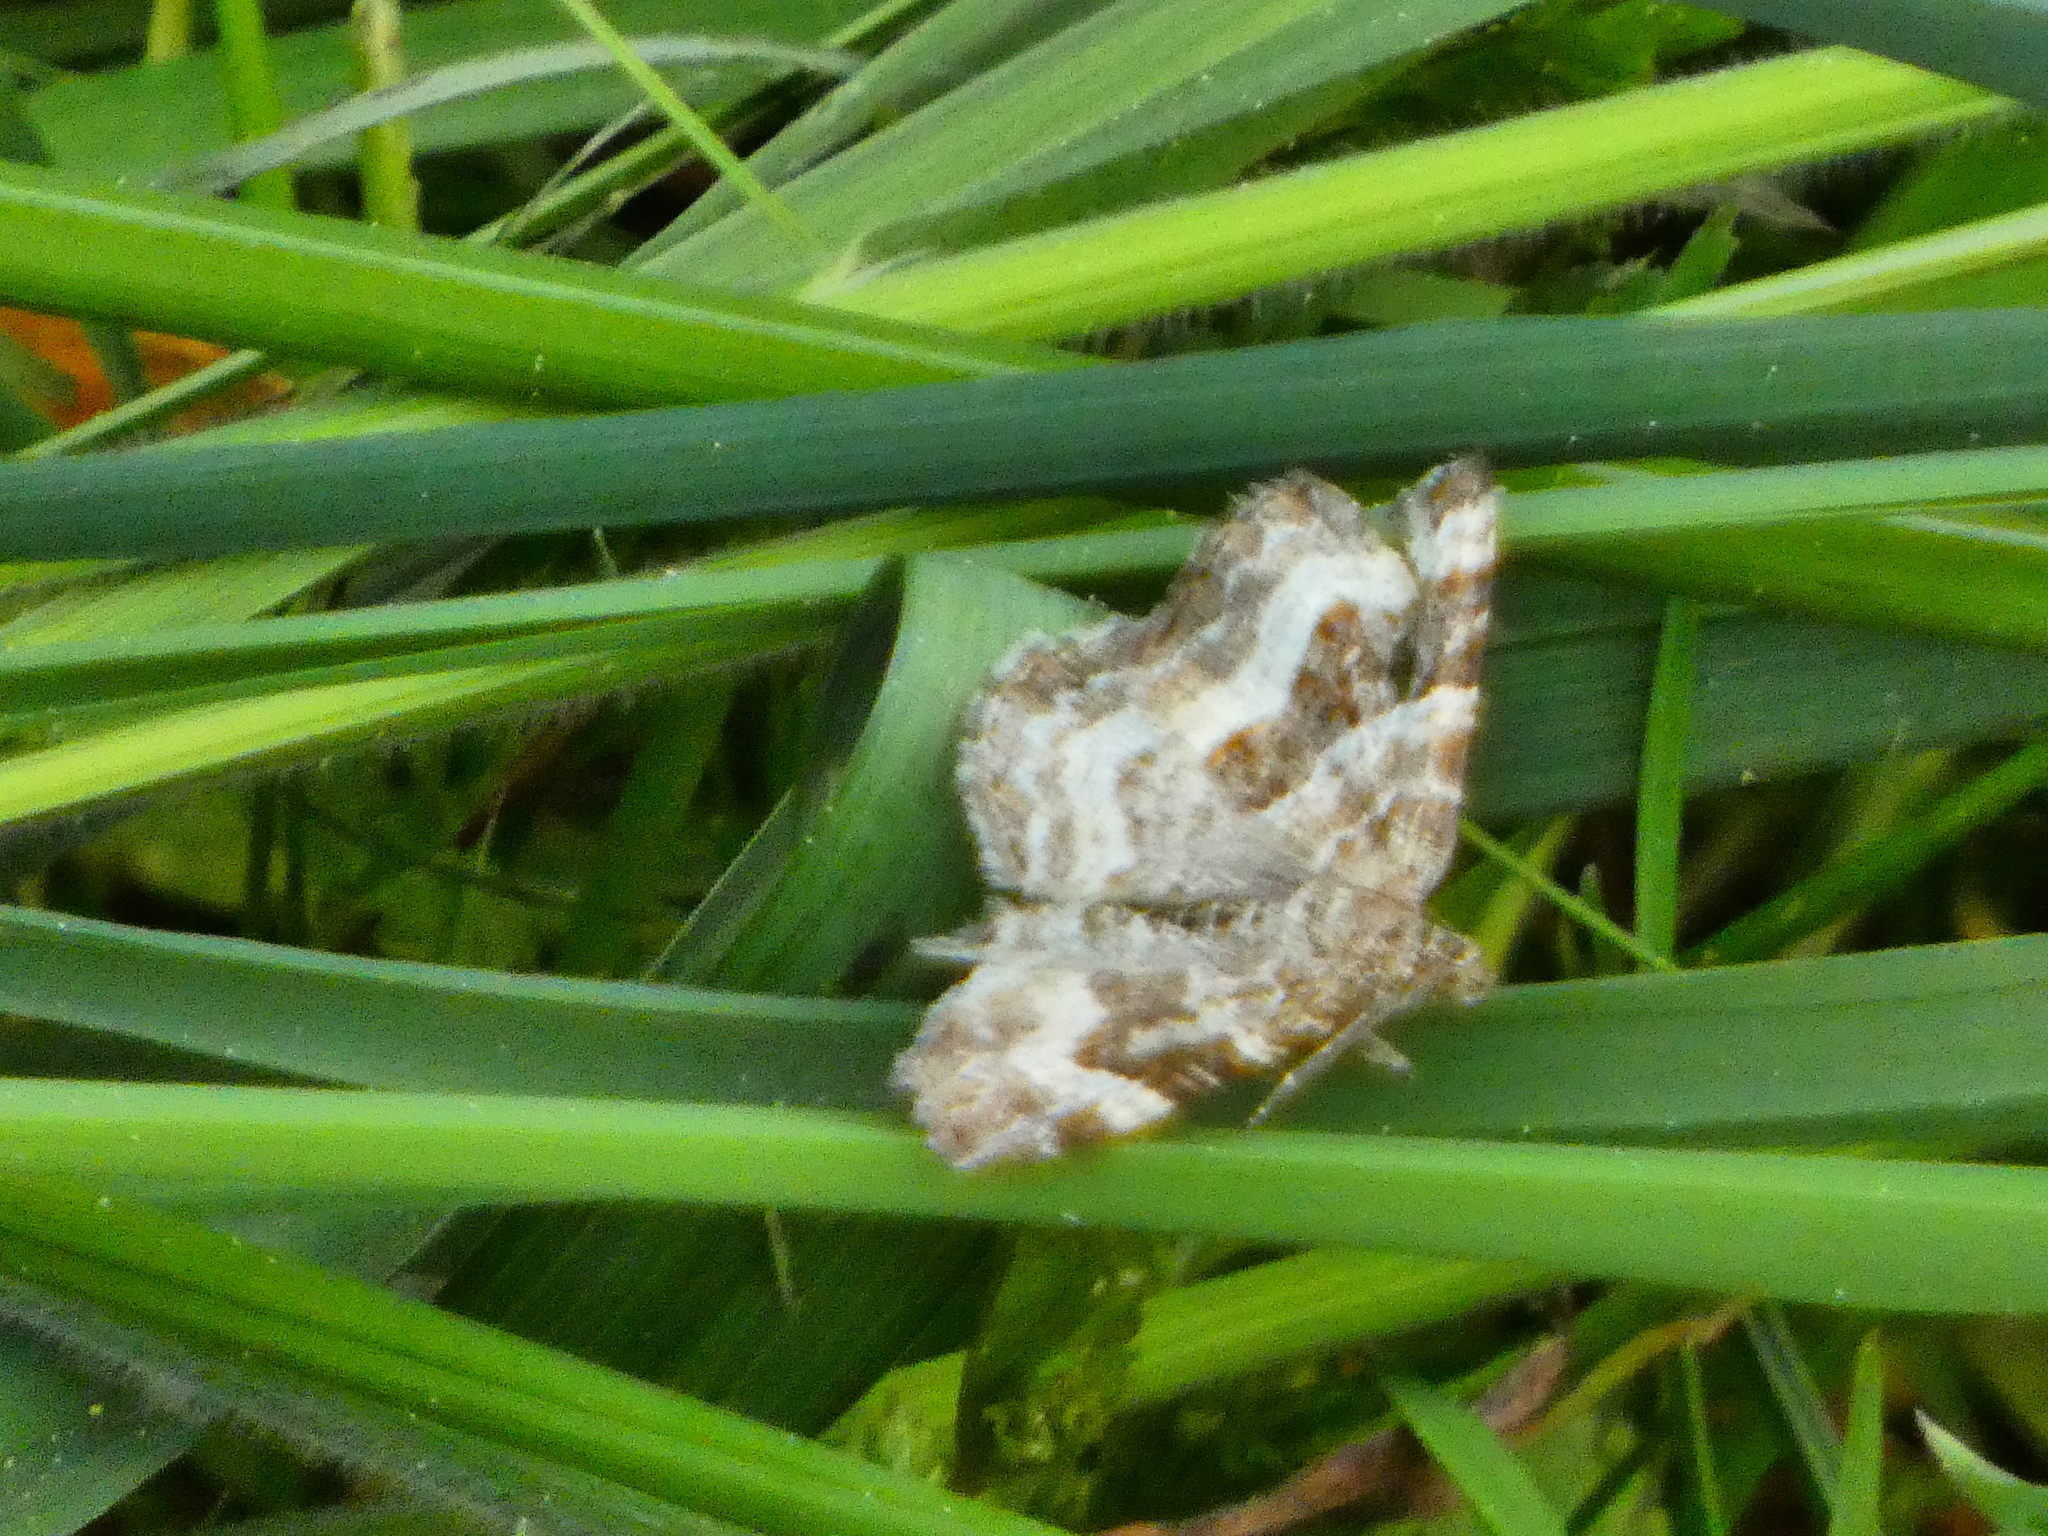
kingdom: Animalia
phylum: Arthropoda
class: Insecta
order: Lepidoptera
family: Geometridae
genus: Epirrhoe
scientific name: Epirrhoe alternata
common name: Common carpet
